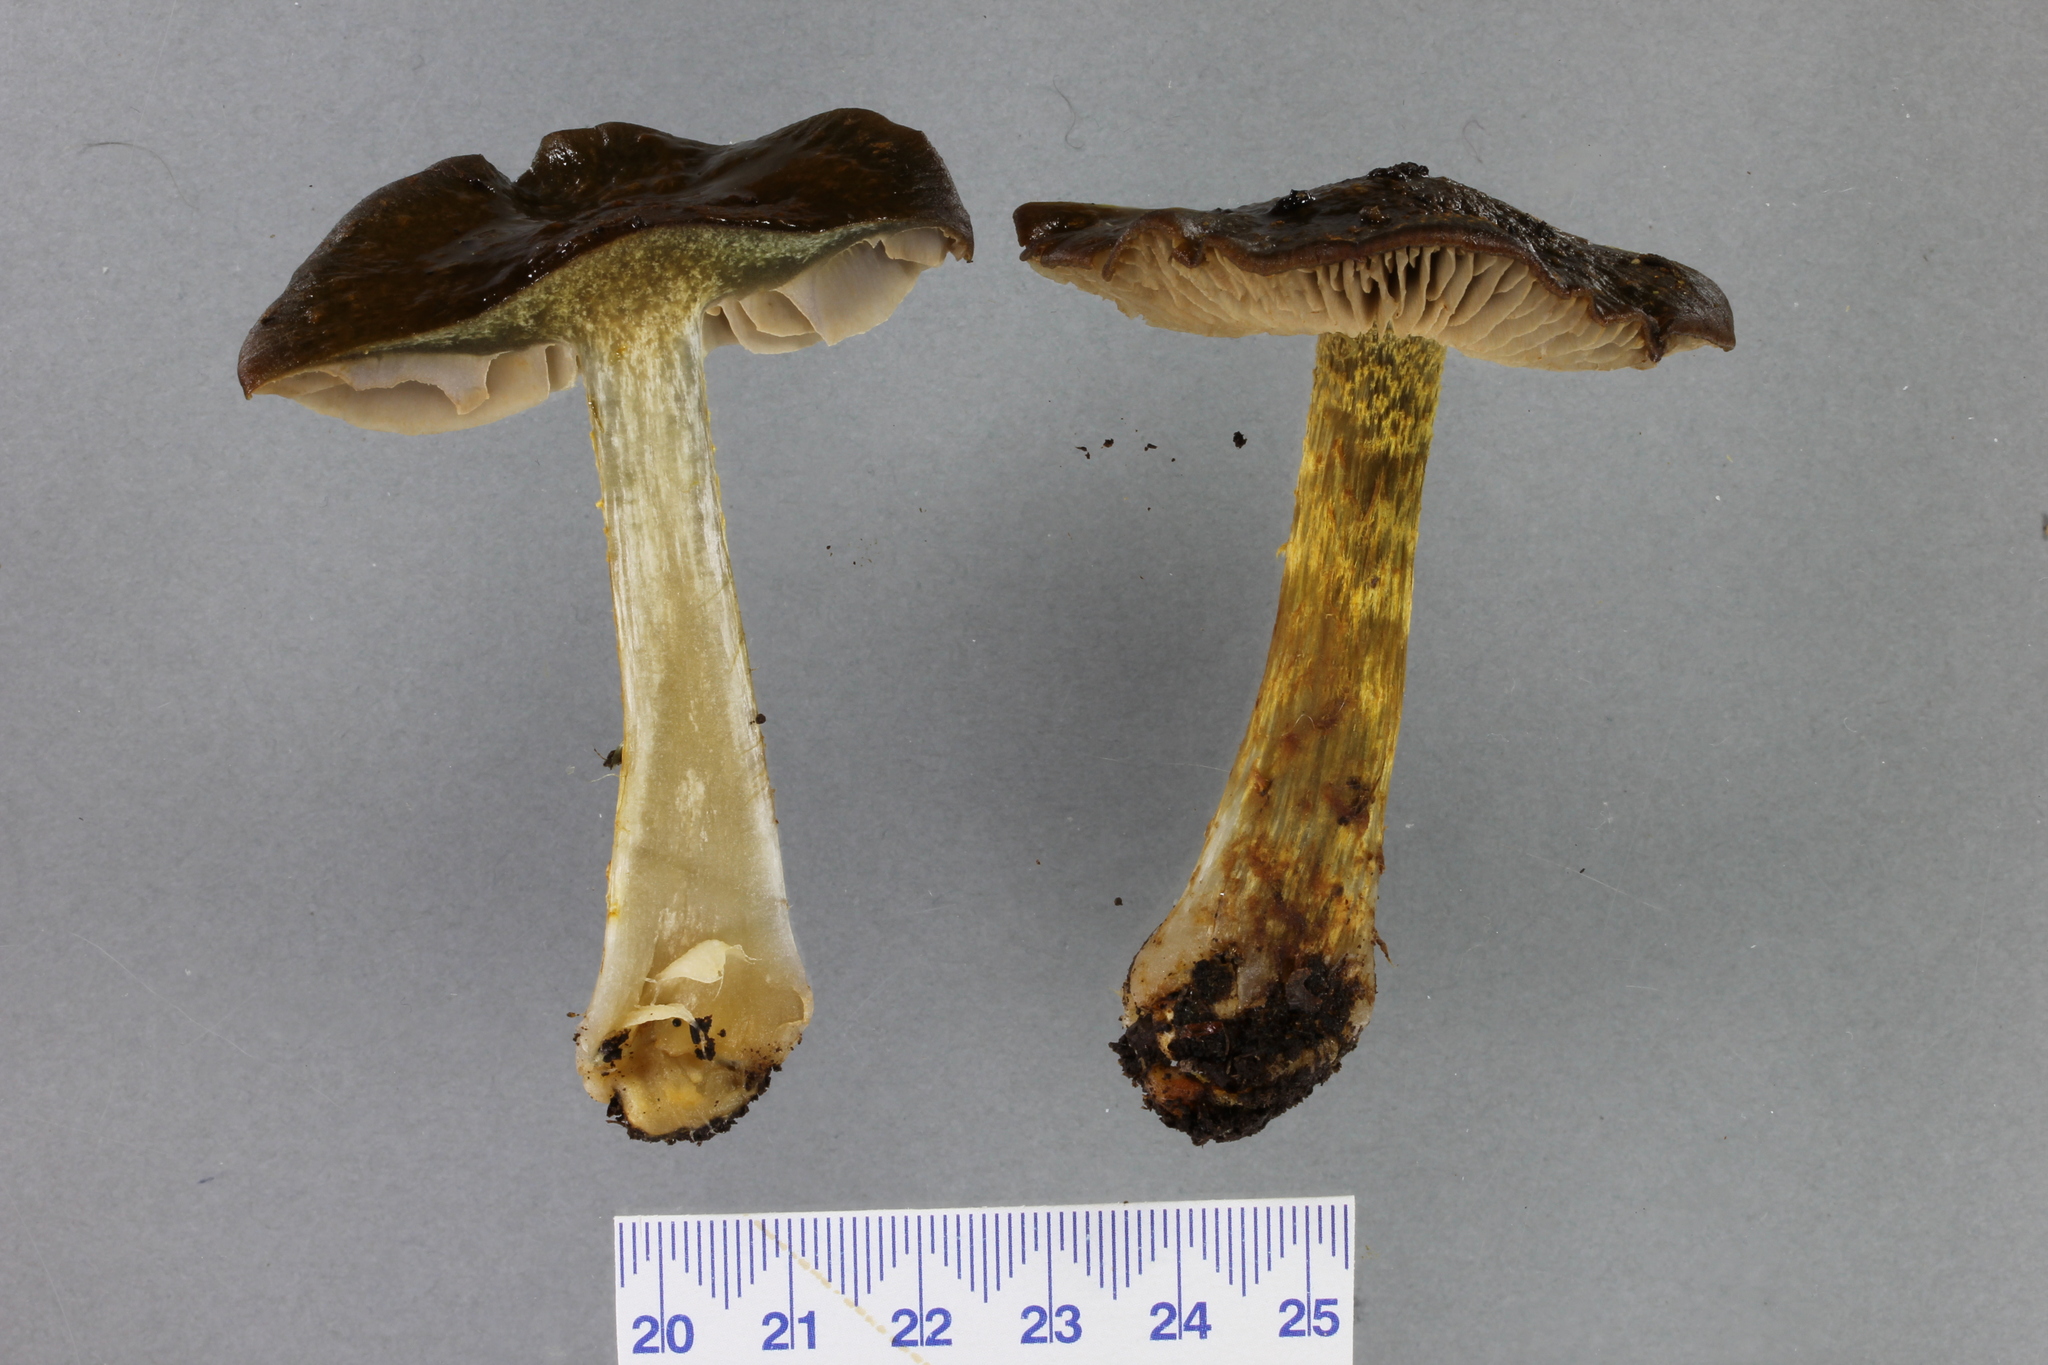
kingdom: Fungi
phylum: Basidiomycota
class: Agaricomycetes
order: Agaricales
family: Cortinariaceae
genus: Cortinarius
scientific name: Cortinarius elaiochrous
